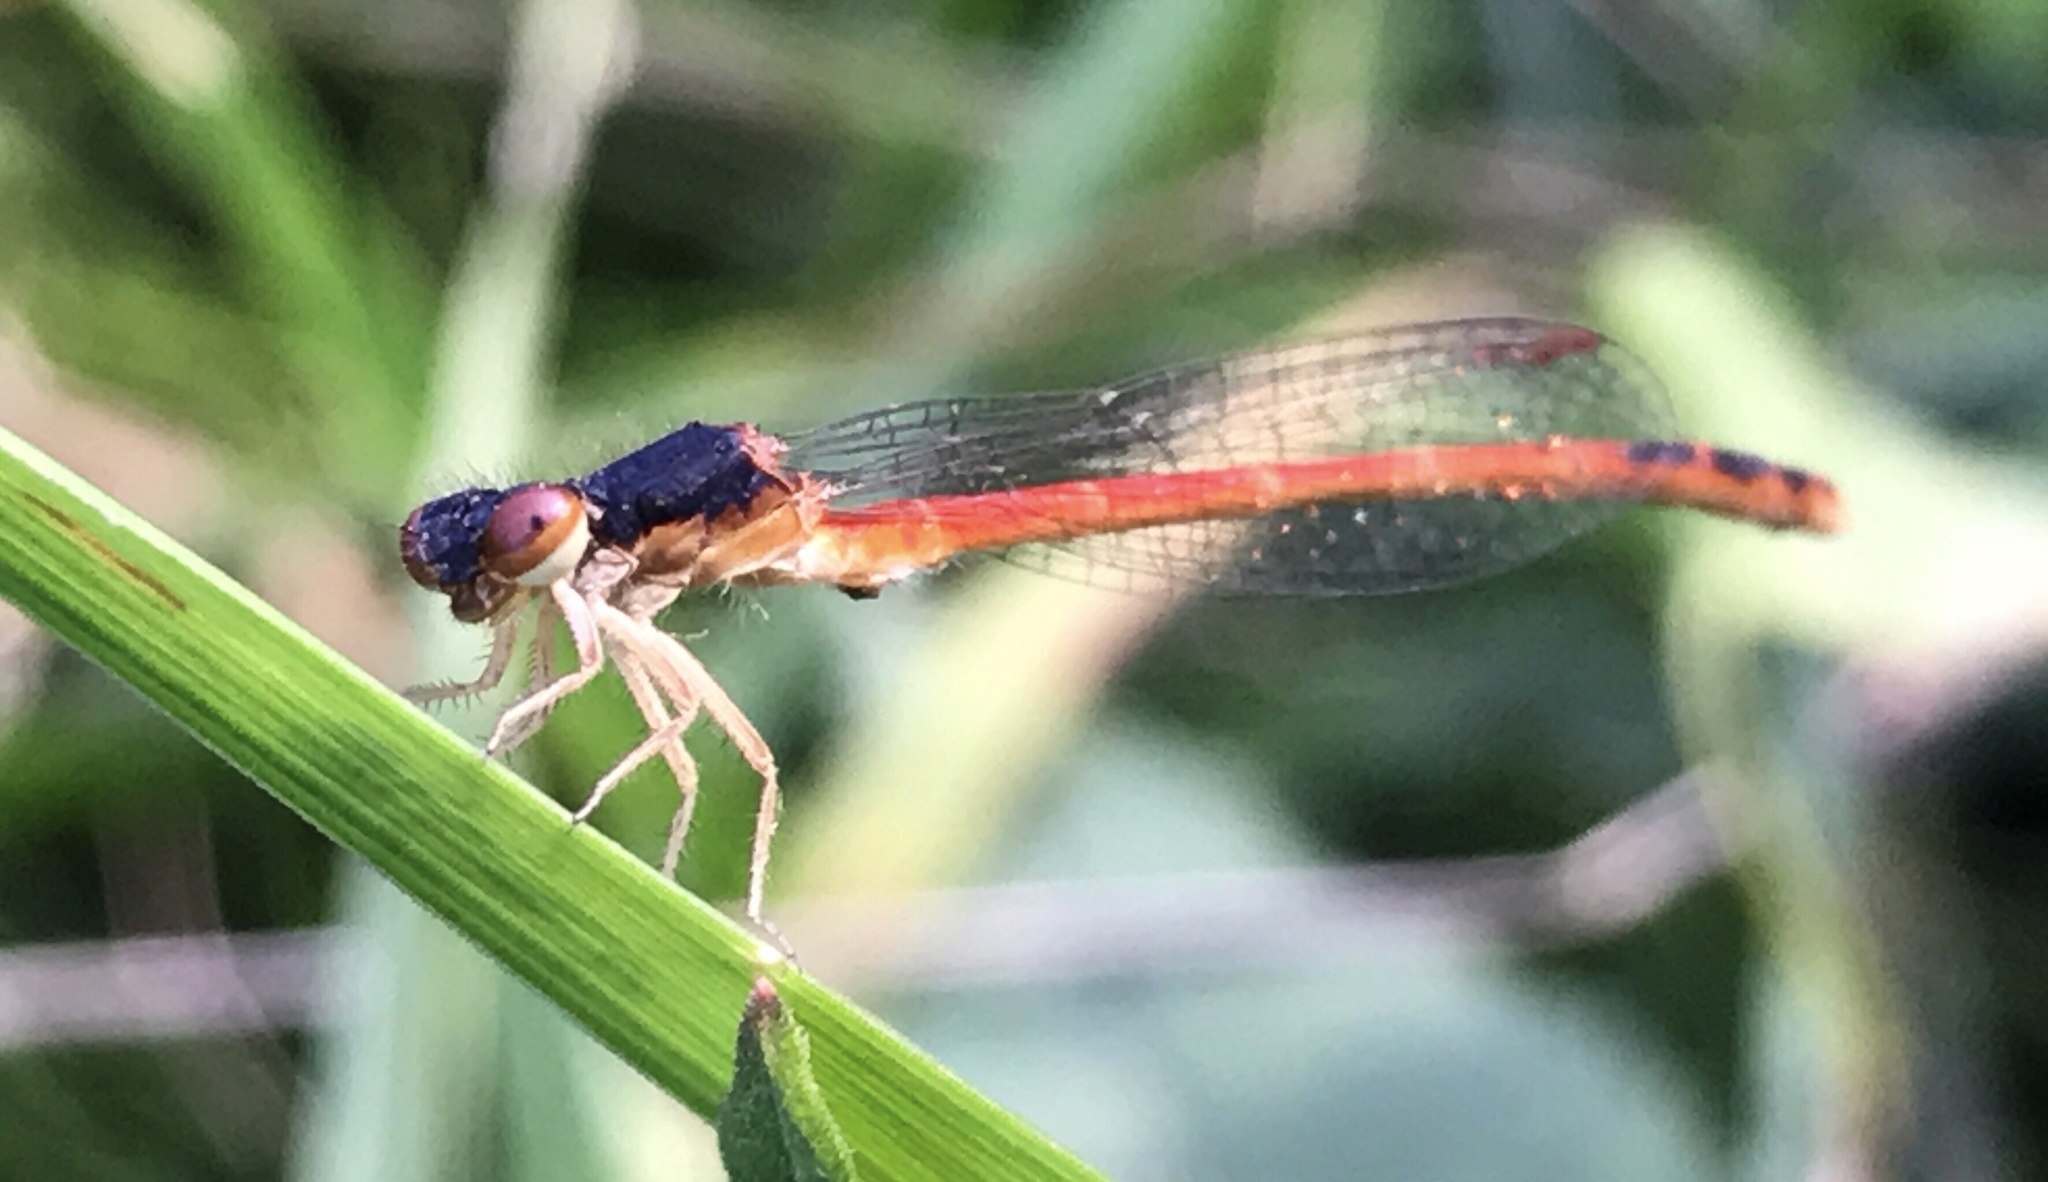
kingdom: Animalia
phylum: Arthropoda
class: Insecta
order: Odonata
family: Coenagrionidae
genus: Amphiagrion
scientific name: Amphiagrion saucium
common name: Eastern red damsel
